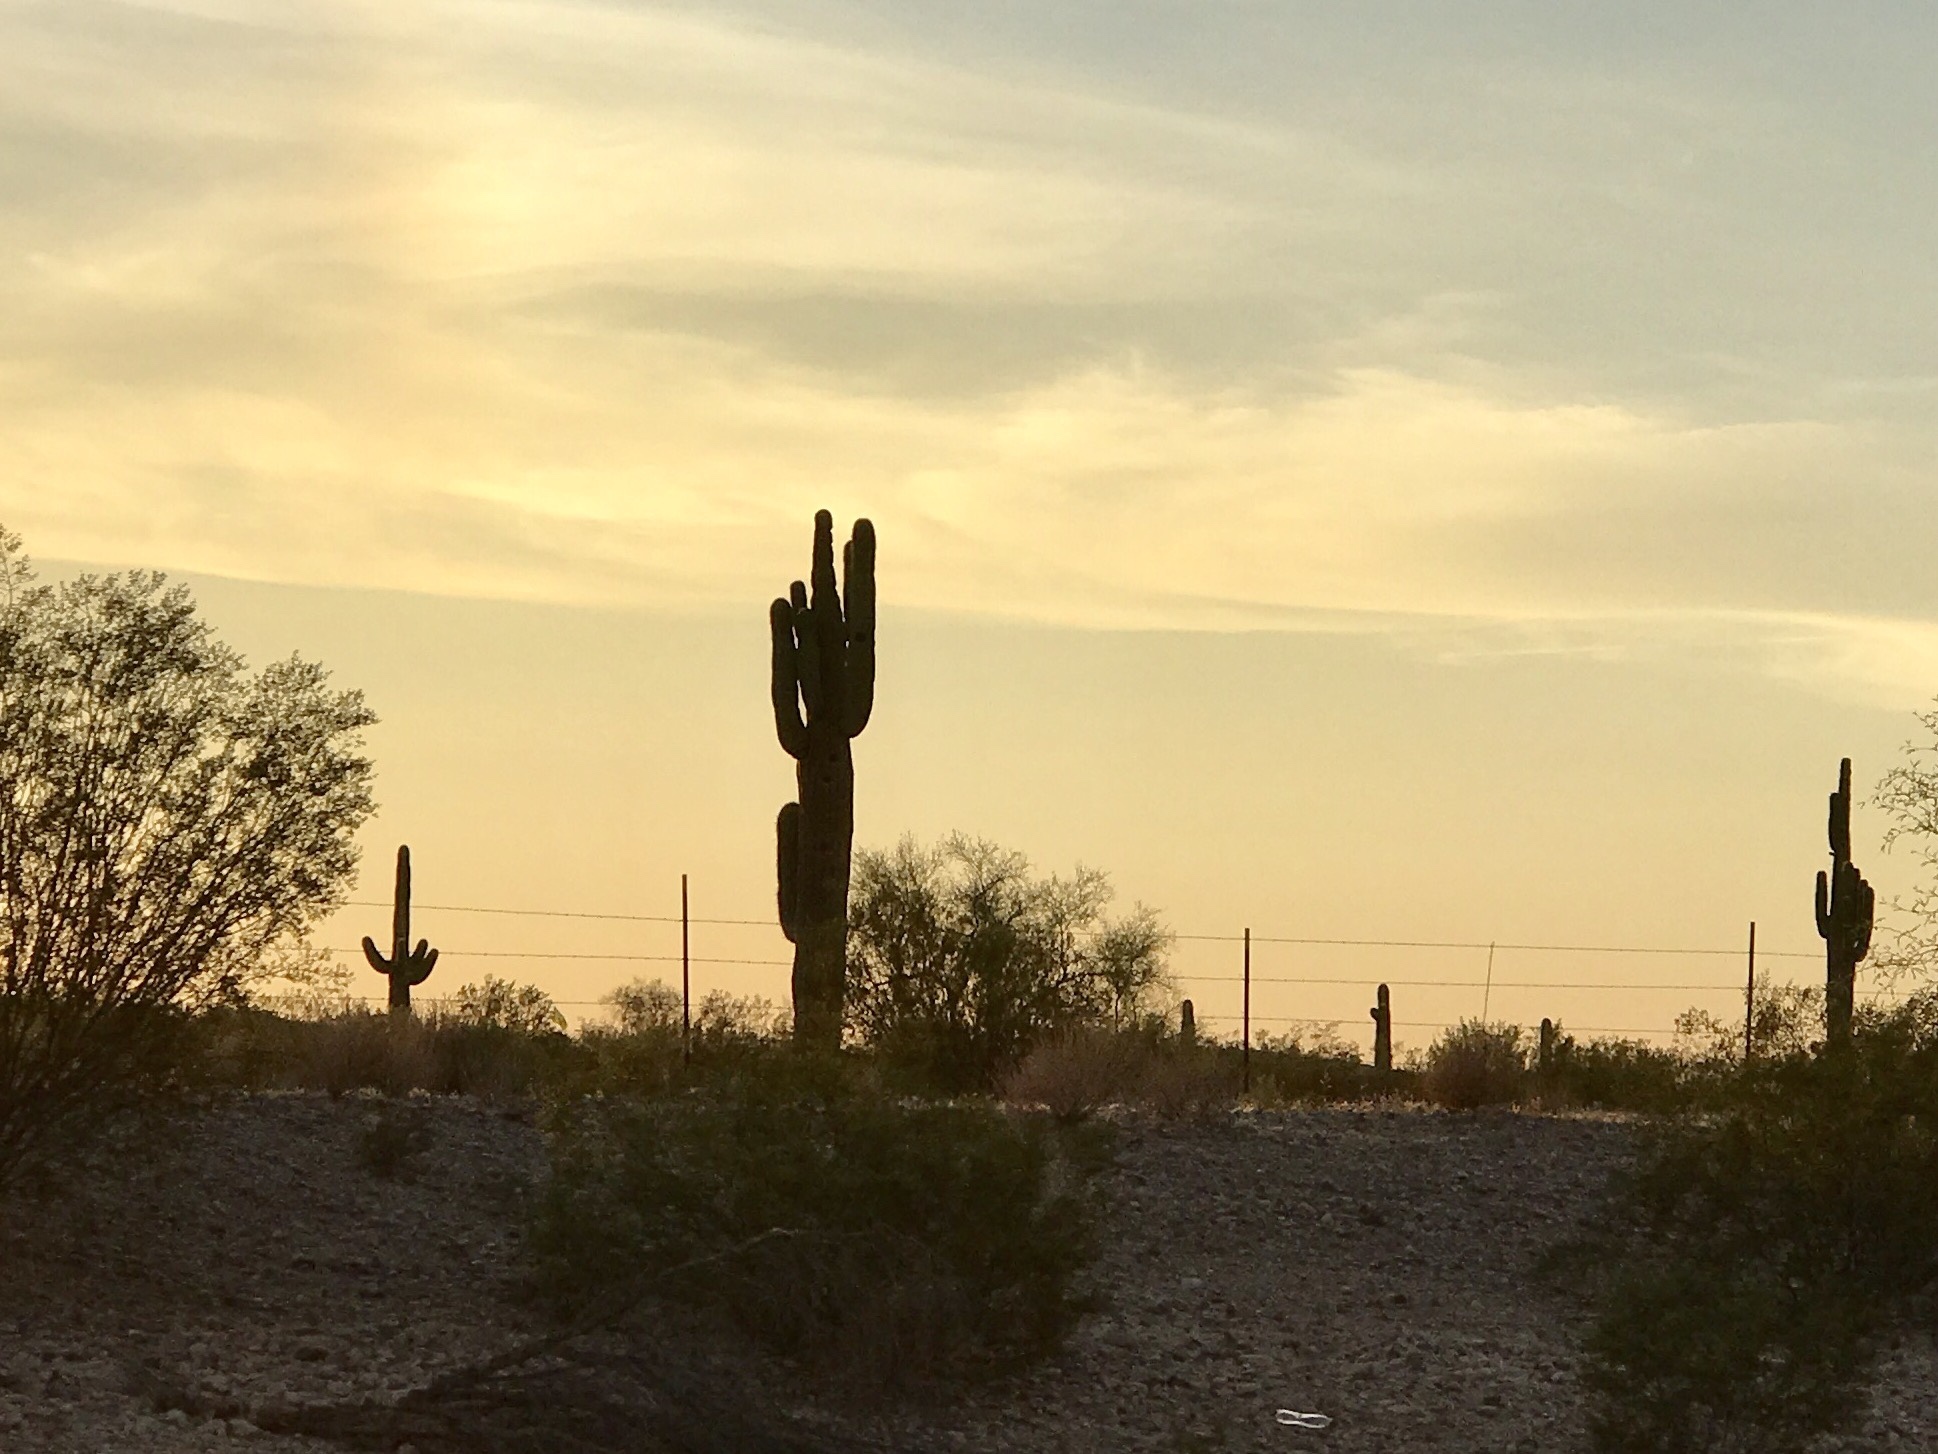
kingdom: Plantae
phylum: Tracheophyta
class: Magnoliopsida
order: Caryophyllales
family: Cactaceae
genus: Carnegiea
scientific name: Carnegiea gigantea
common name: Saguaro
